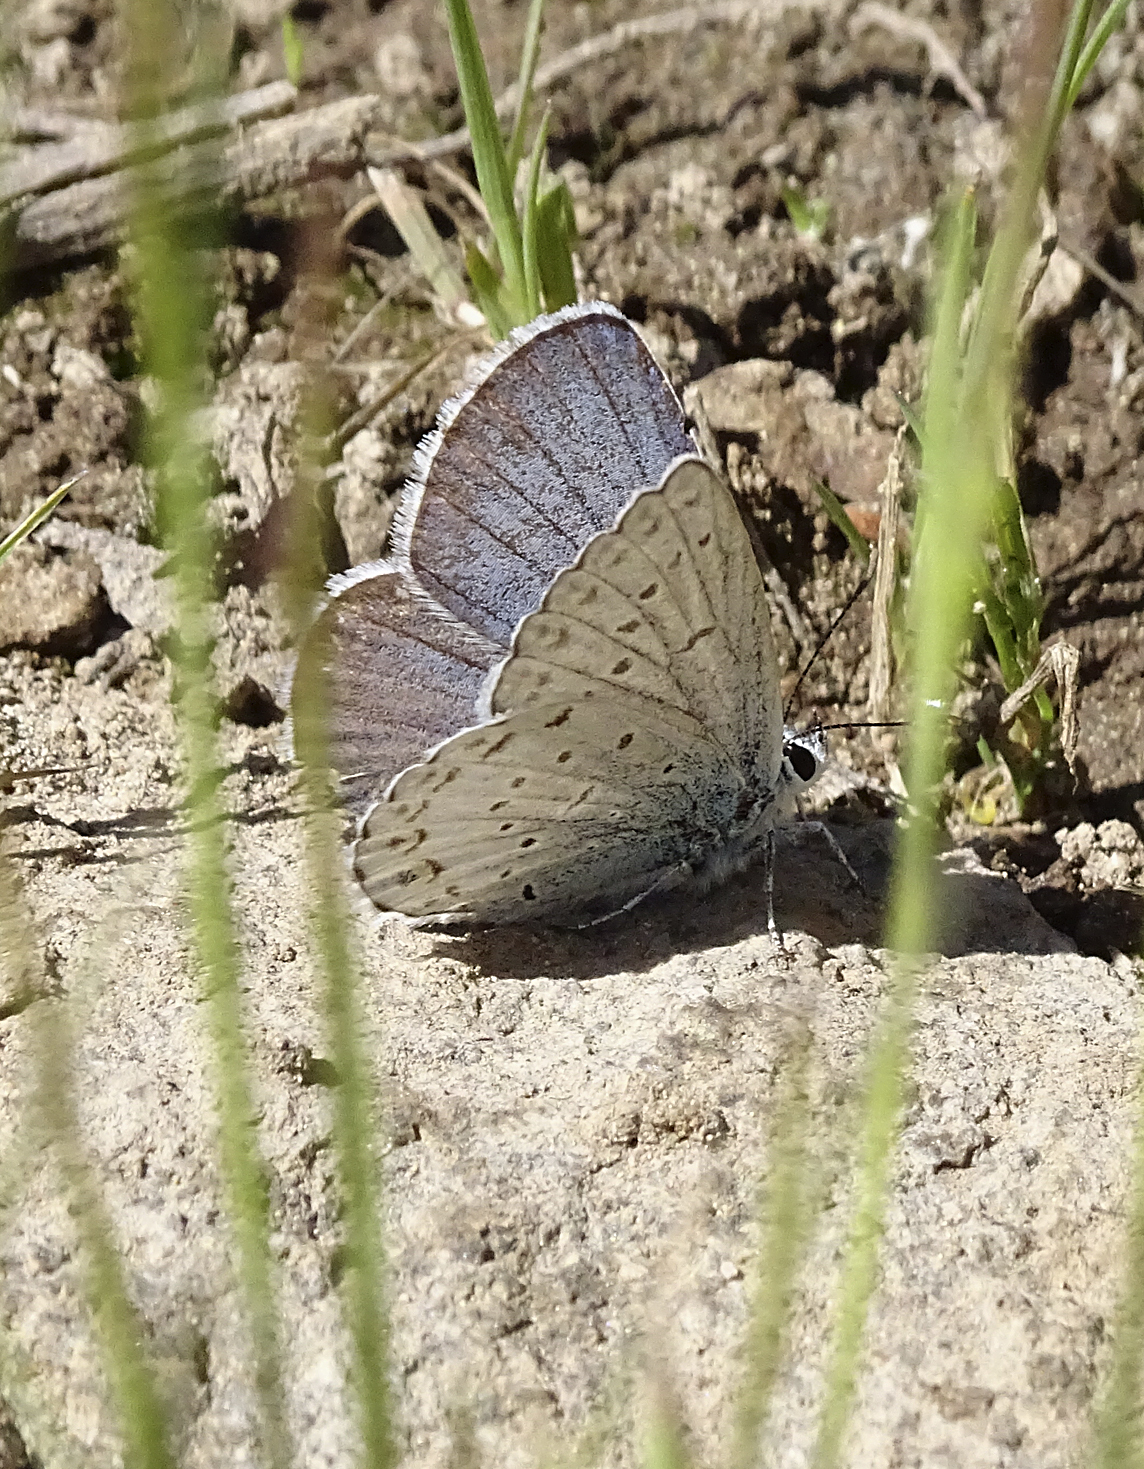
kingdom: Animalia
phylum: Arthropoda
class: Insecta
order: Lepidoptera
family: Lycaenidae
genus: Lycaeides
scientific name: Lycaeides anna
